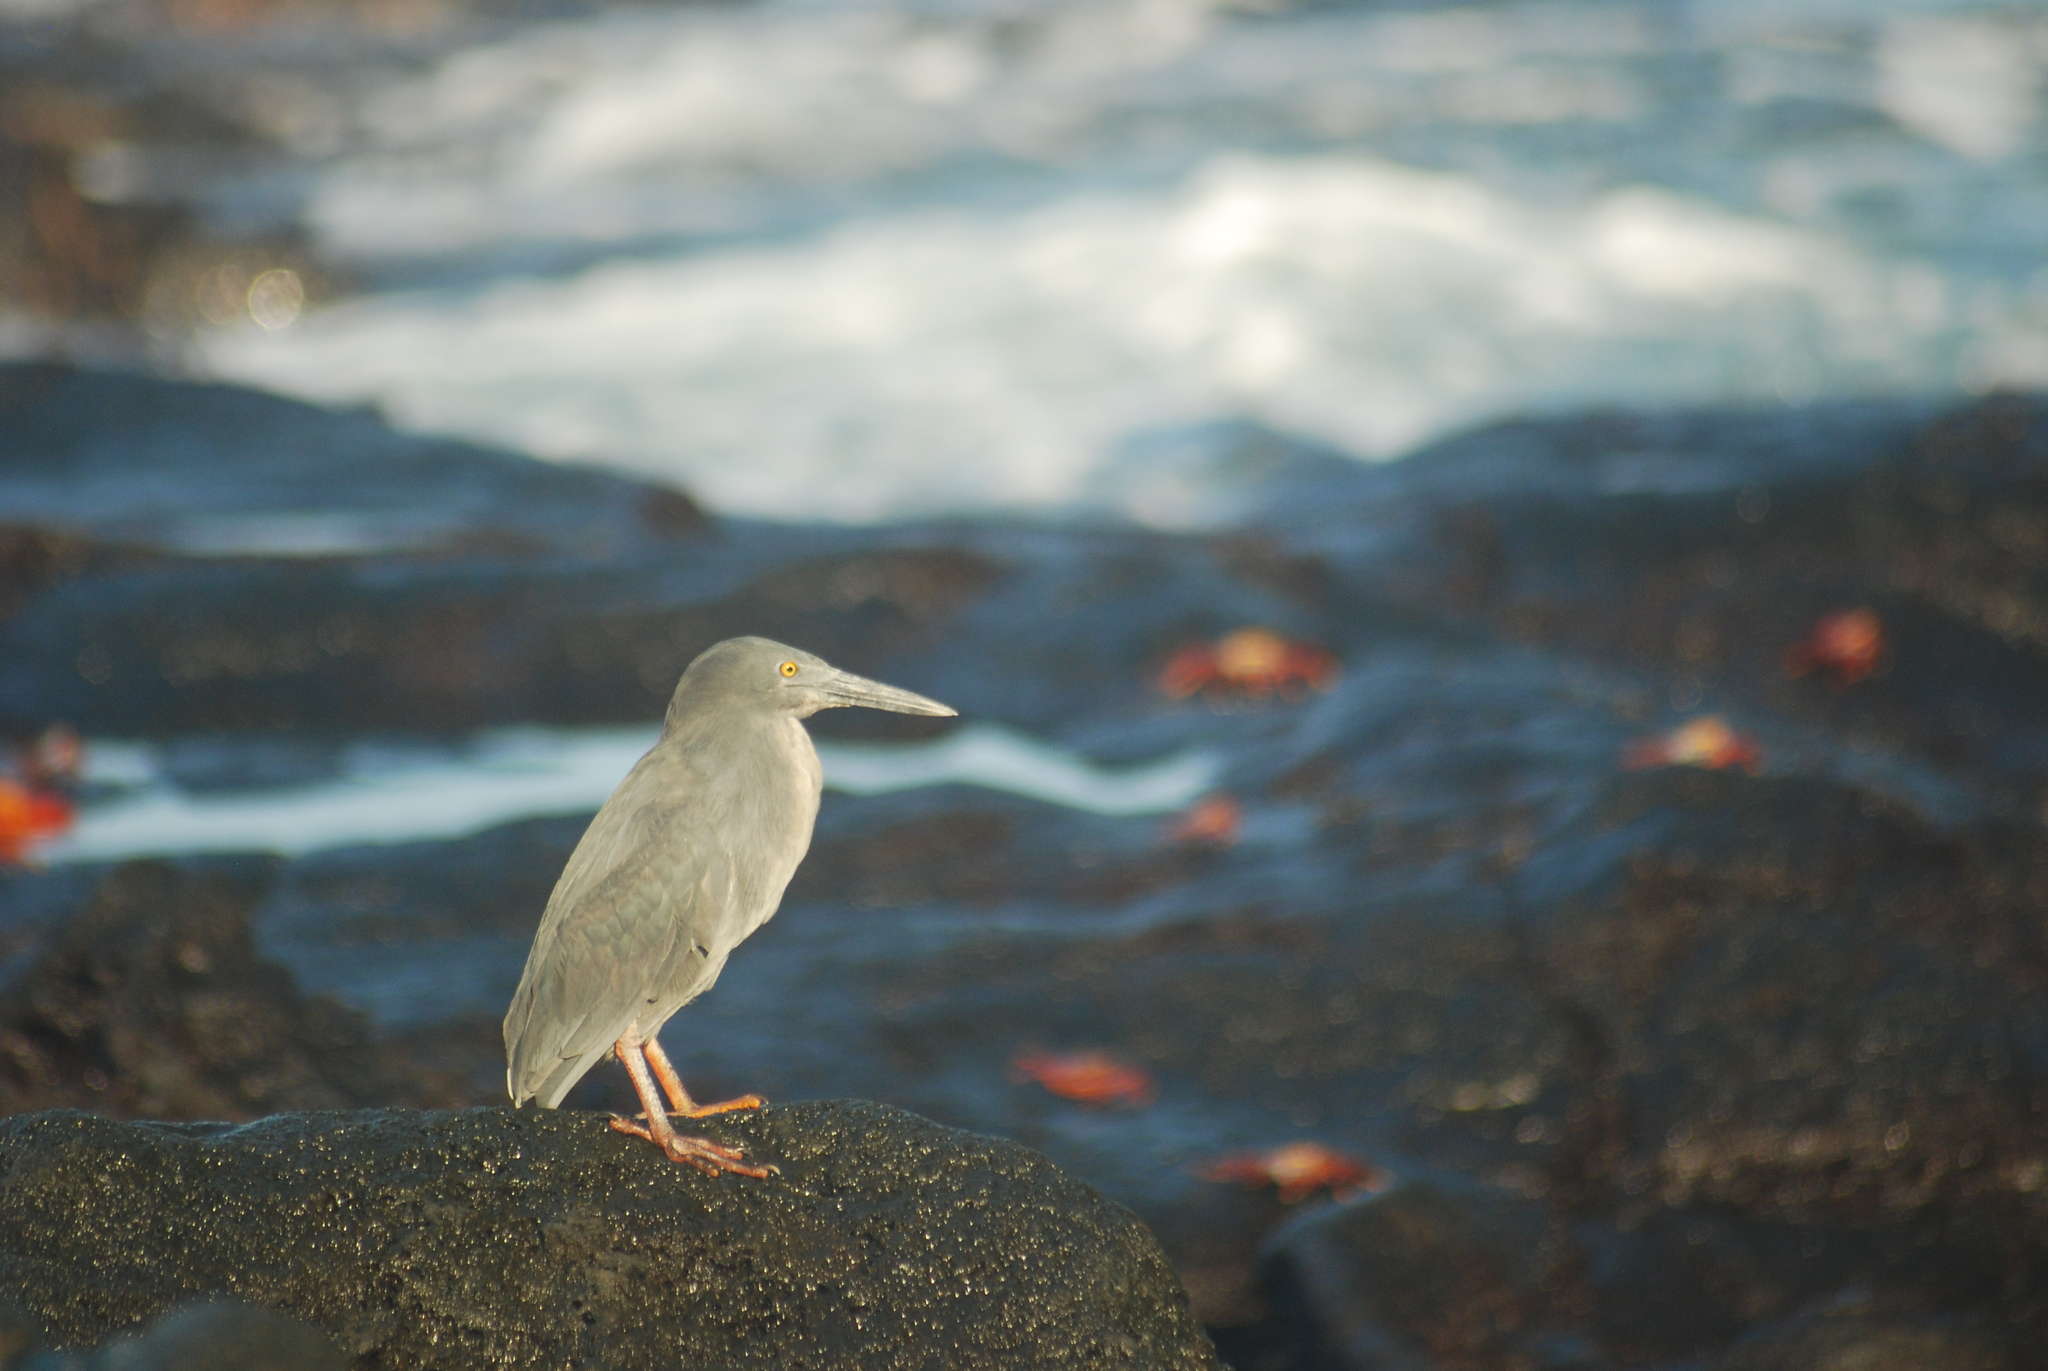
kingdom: Animalia
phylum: Chordata
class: Aves
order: Pelecaniformes
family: Ardeidae
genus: Butorides
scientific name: Butorides striata
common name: Striated heron
